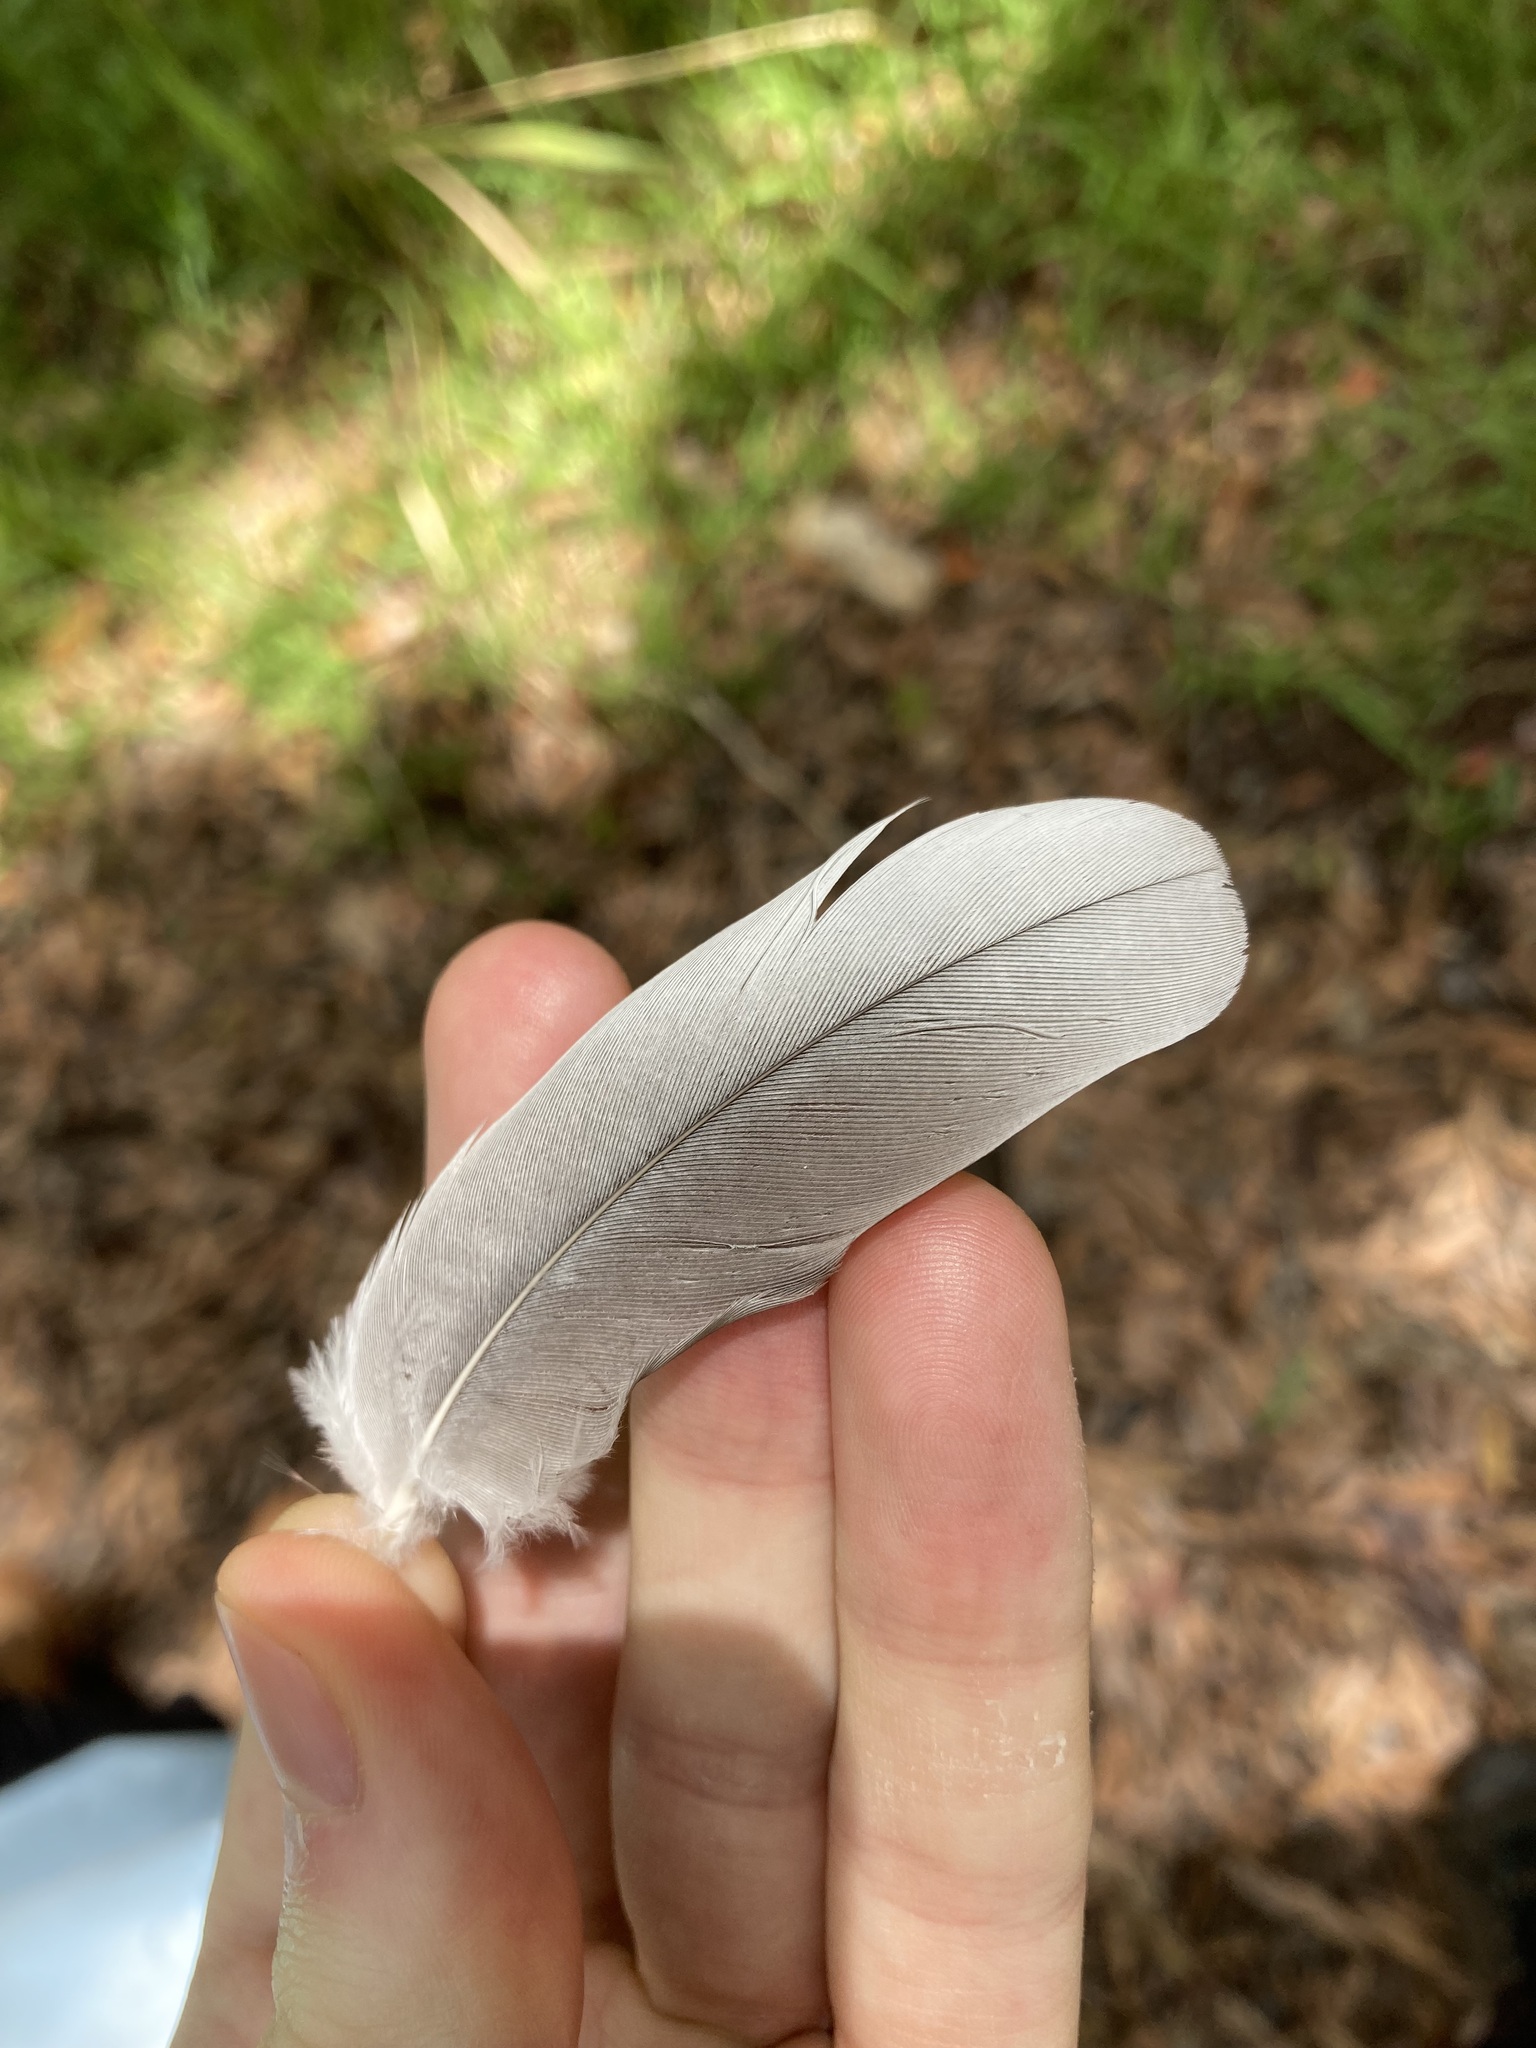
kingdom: Animalia
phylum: Chordata
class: Aves
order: Psittaciformes
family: Psittacidae
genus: Eolophus
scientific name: Eolophus roseicapilla
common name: Galah
